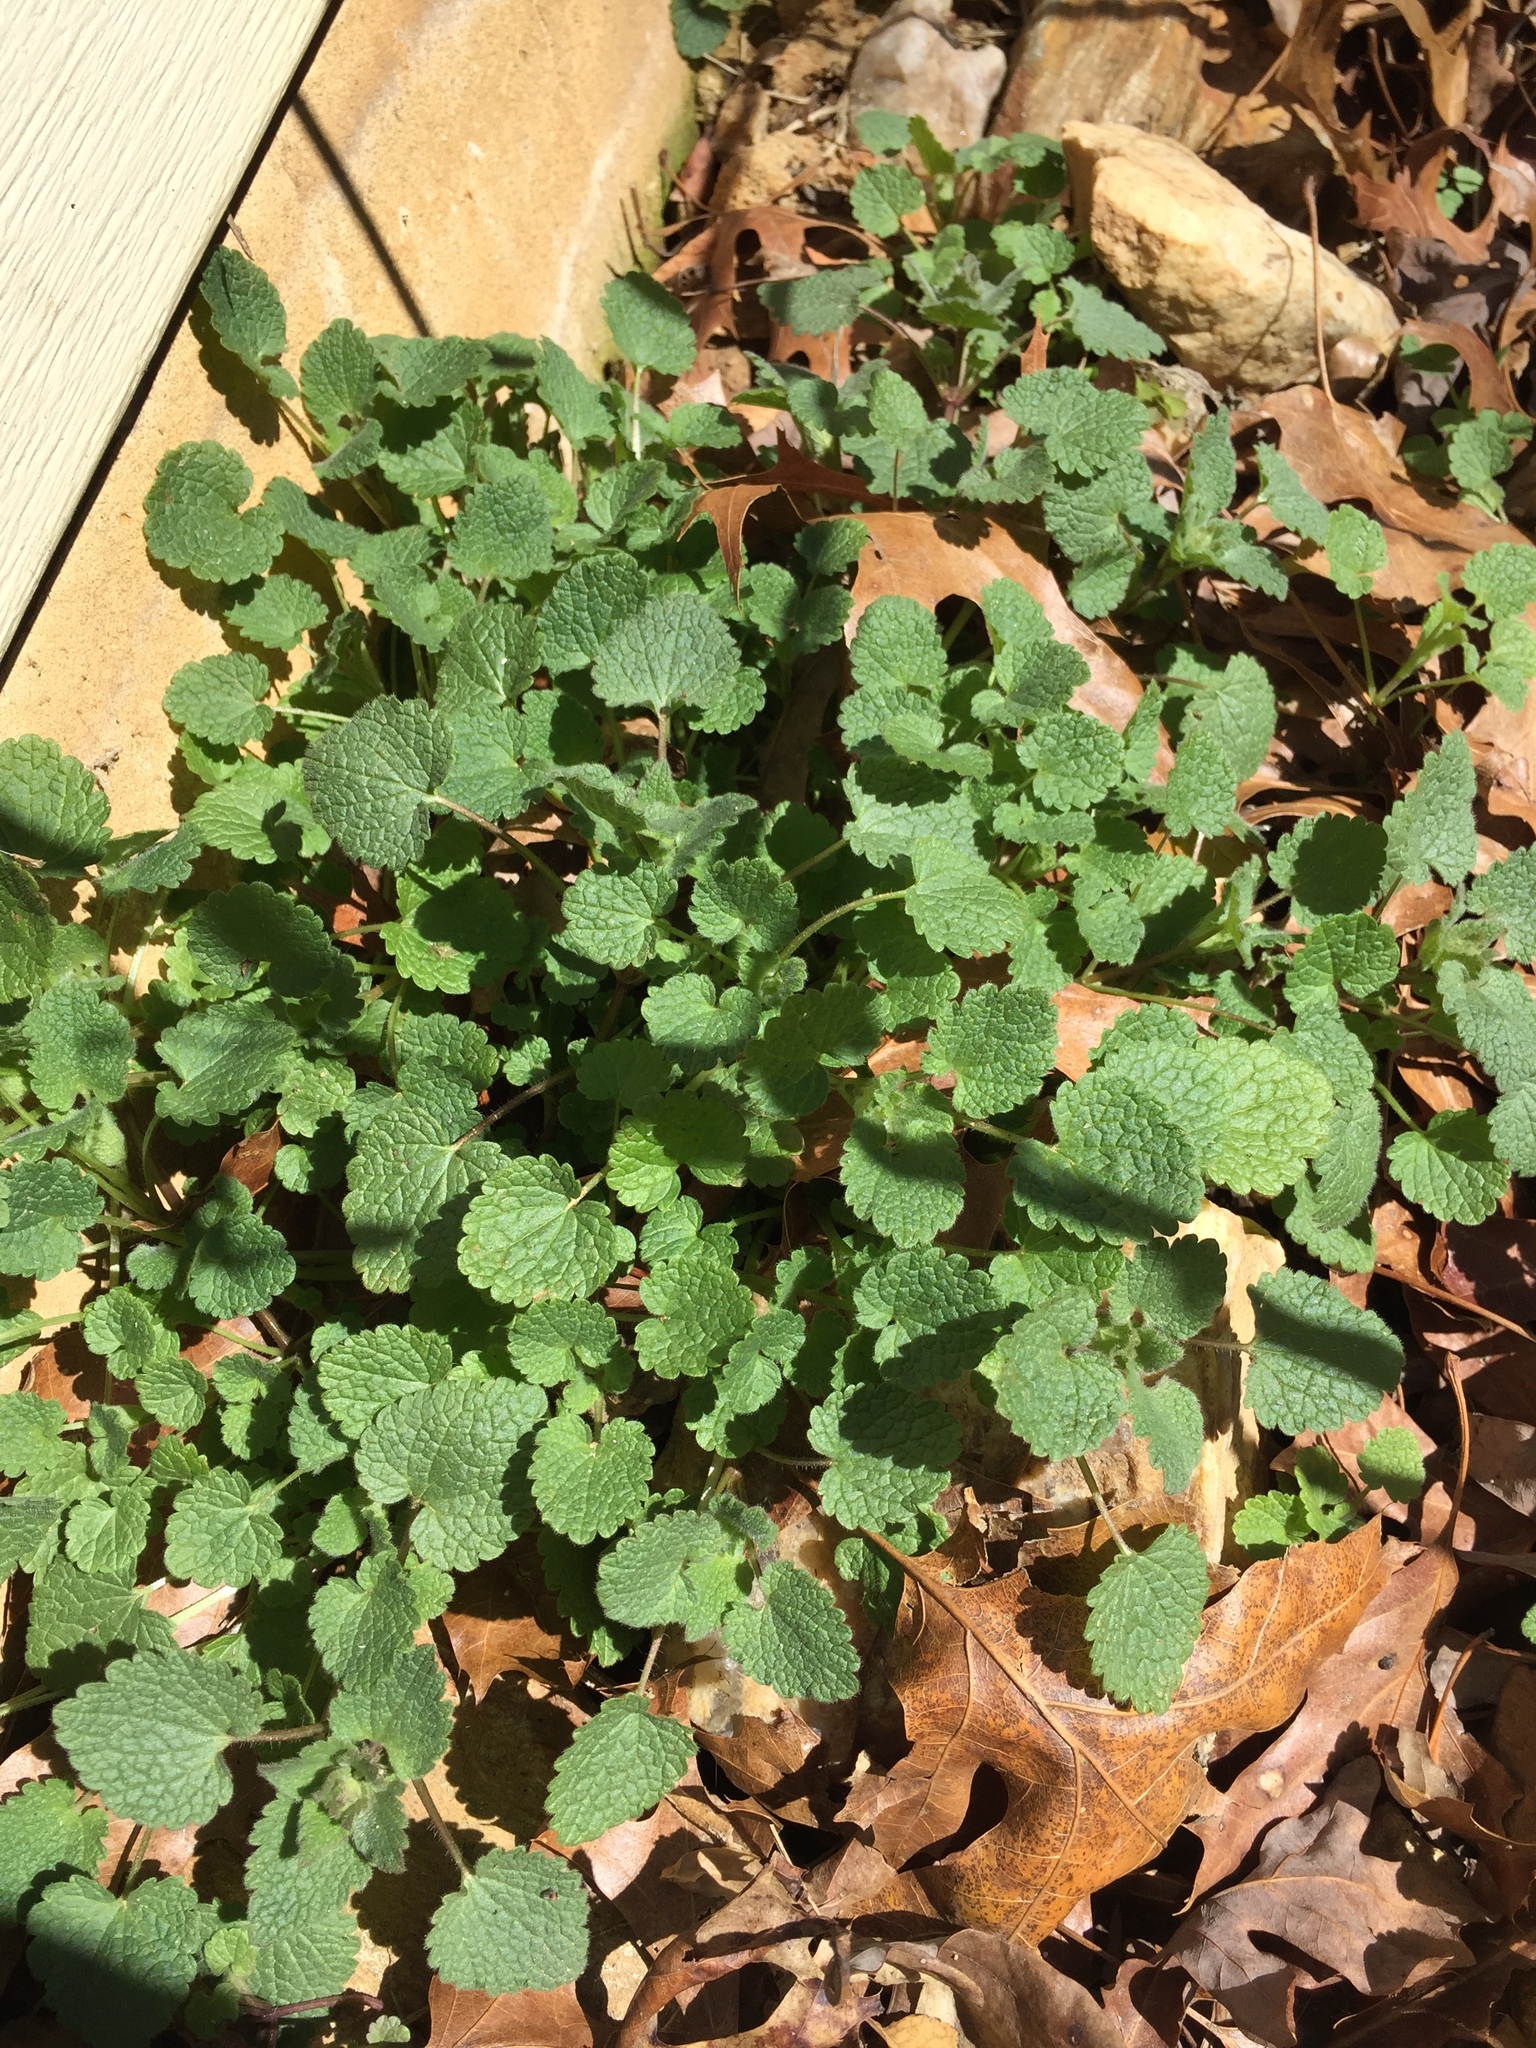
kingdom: Plantae
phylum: Tracheophyta
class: Magnoliopsida
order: Lamiales
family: Lamiaceae
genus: Lamium
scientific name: Lamium purpureum
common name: Red dead-nettle
